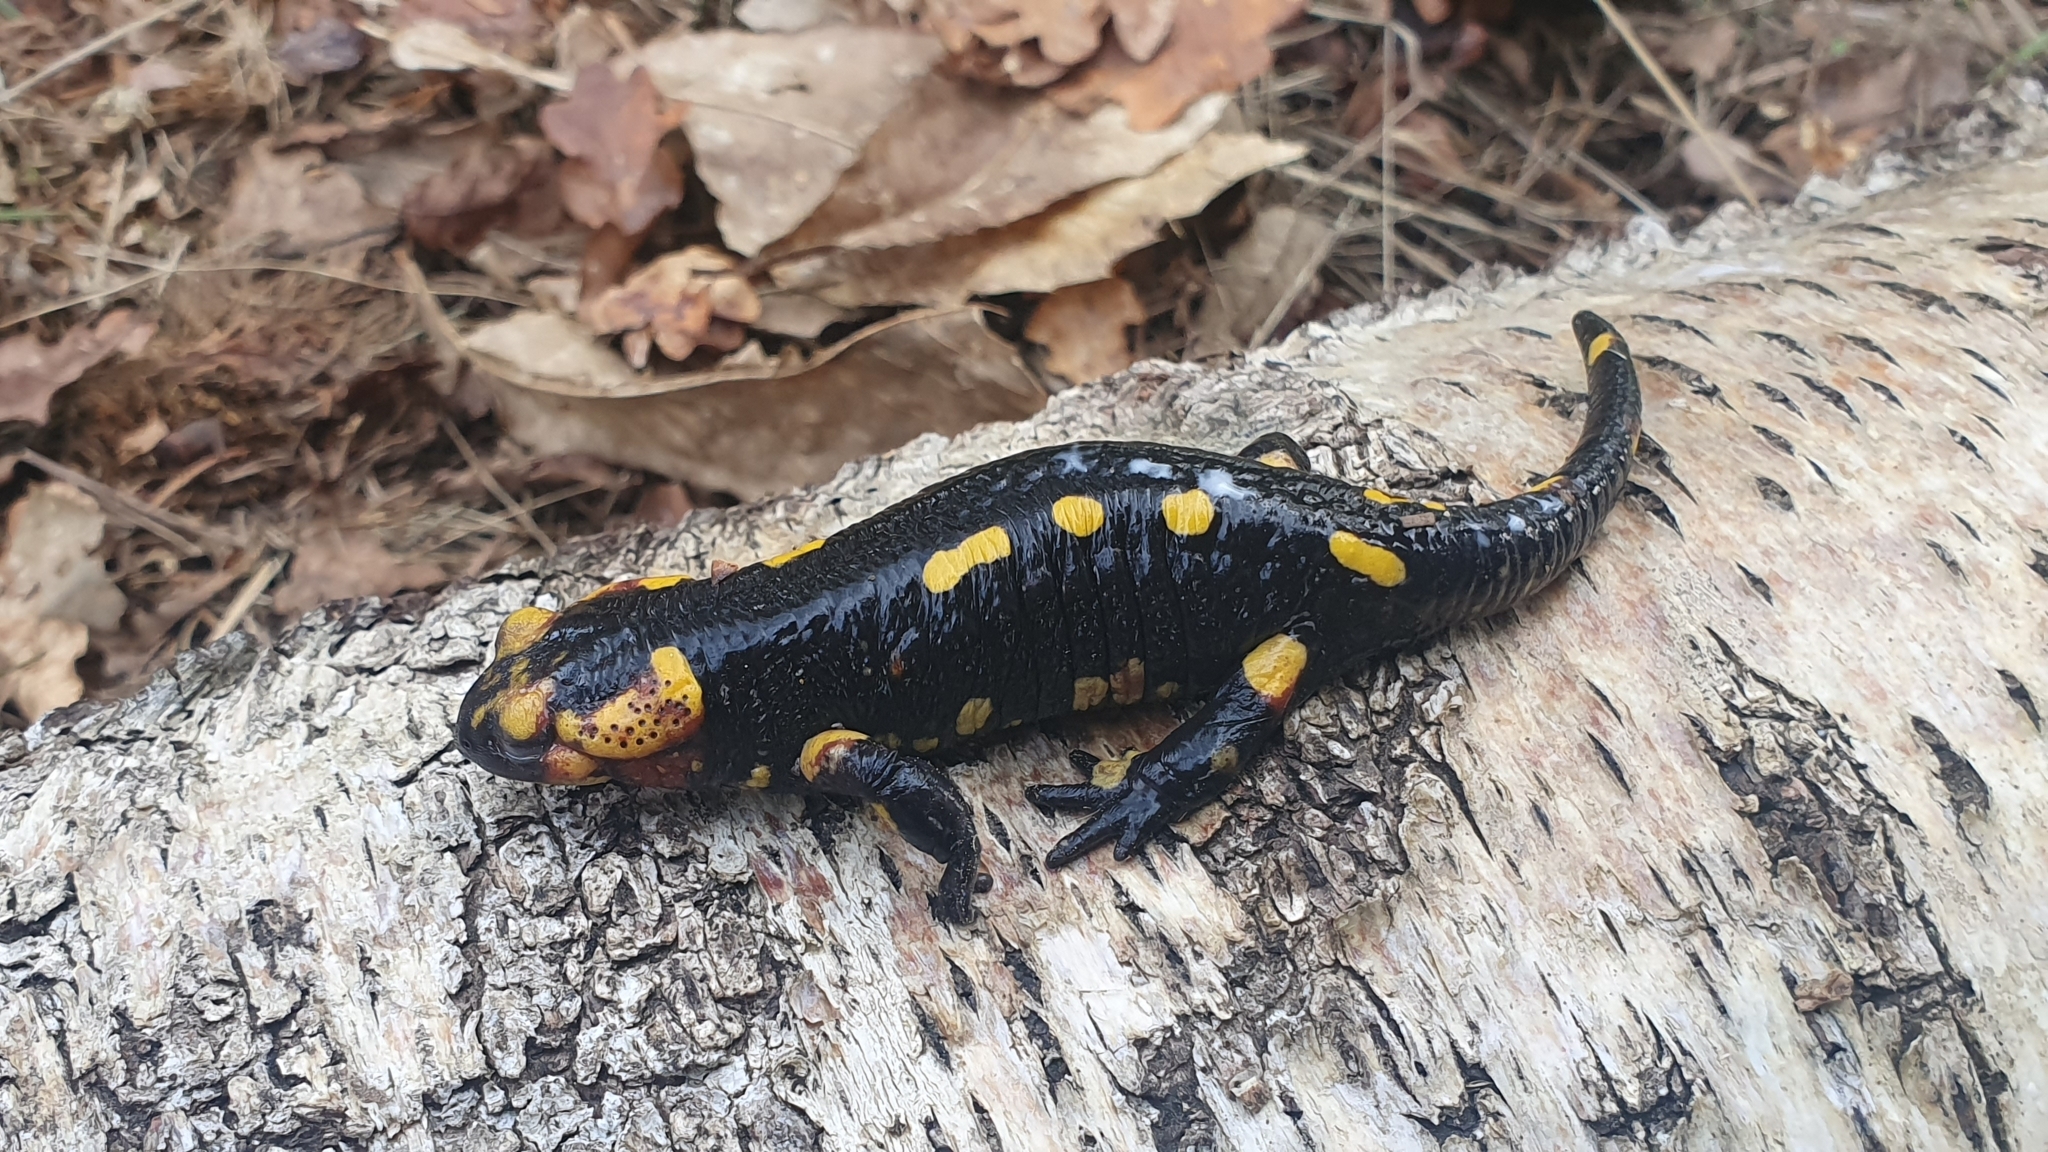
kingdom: Animalia
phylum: Chordata
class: Amphibia
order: Caudata
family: Salamandridae
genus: Salamandra
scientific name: Salamandra salamandra
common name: Fire salamander
